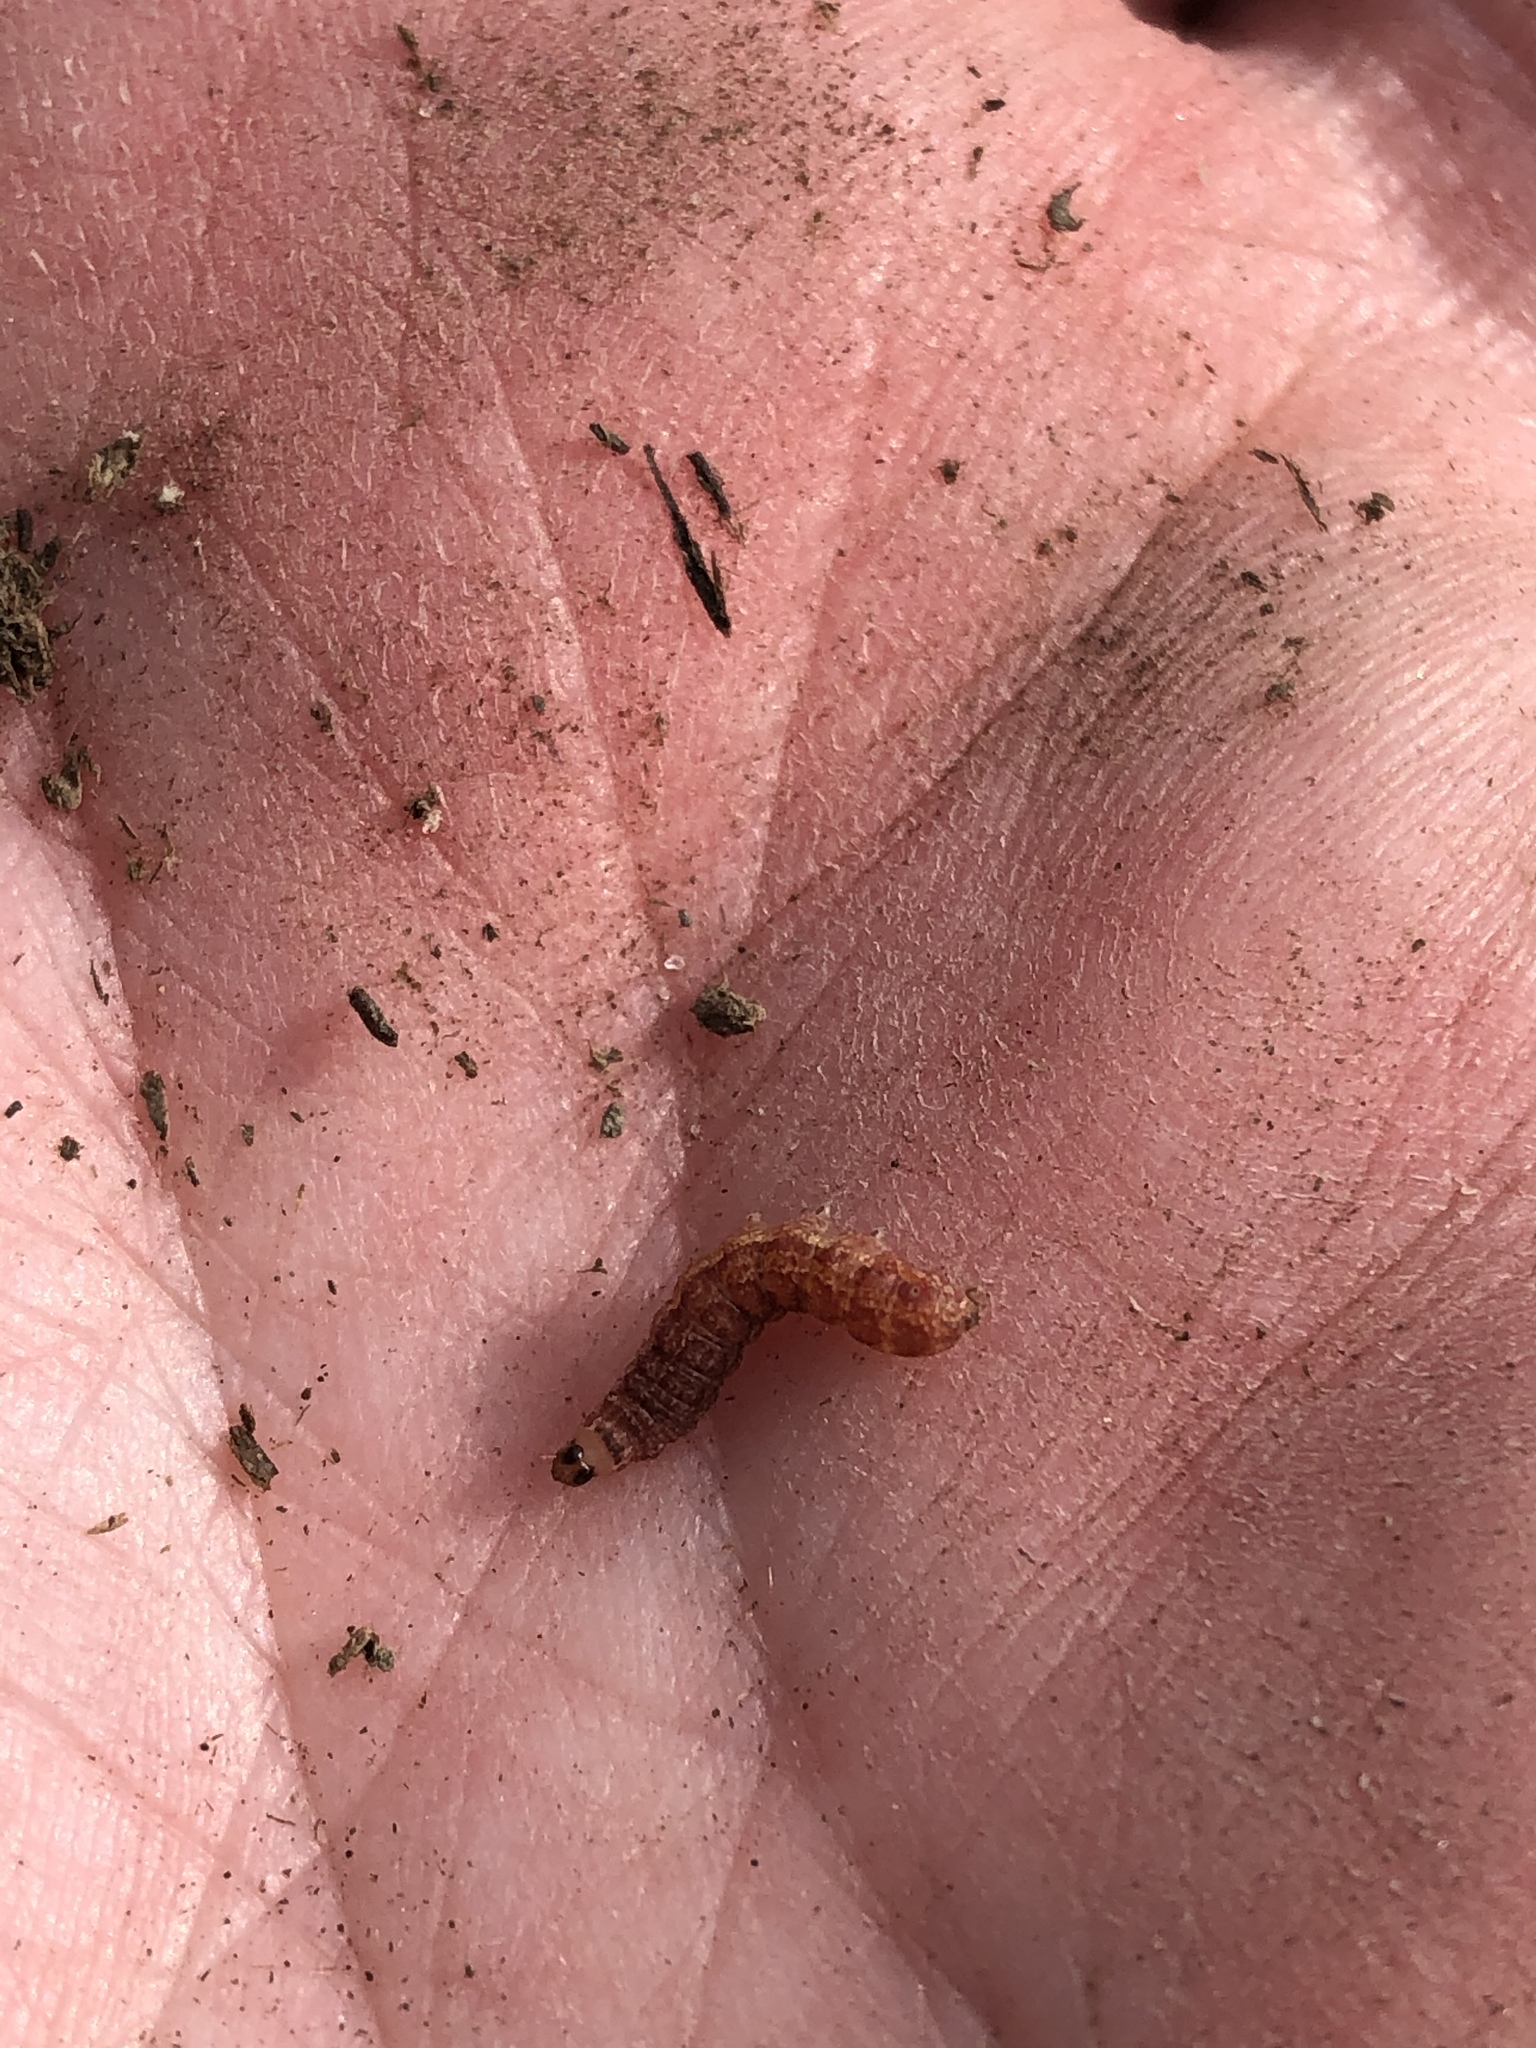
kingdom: Animalia
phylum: Arthropoda
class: Insecta
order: Lepidoptera
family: Noctuidae
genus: Agrochola
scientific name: Agrochola bicolorago
